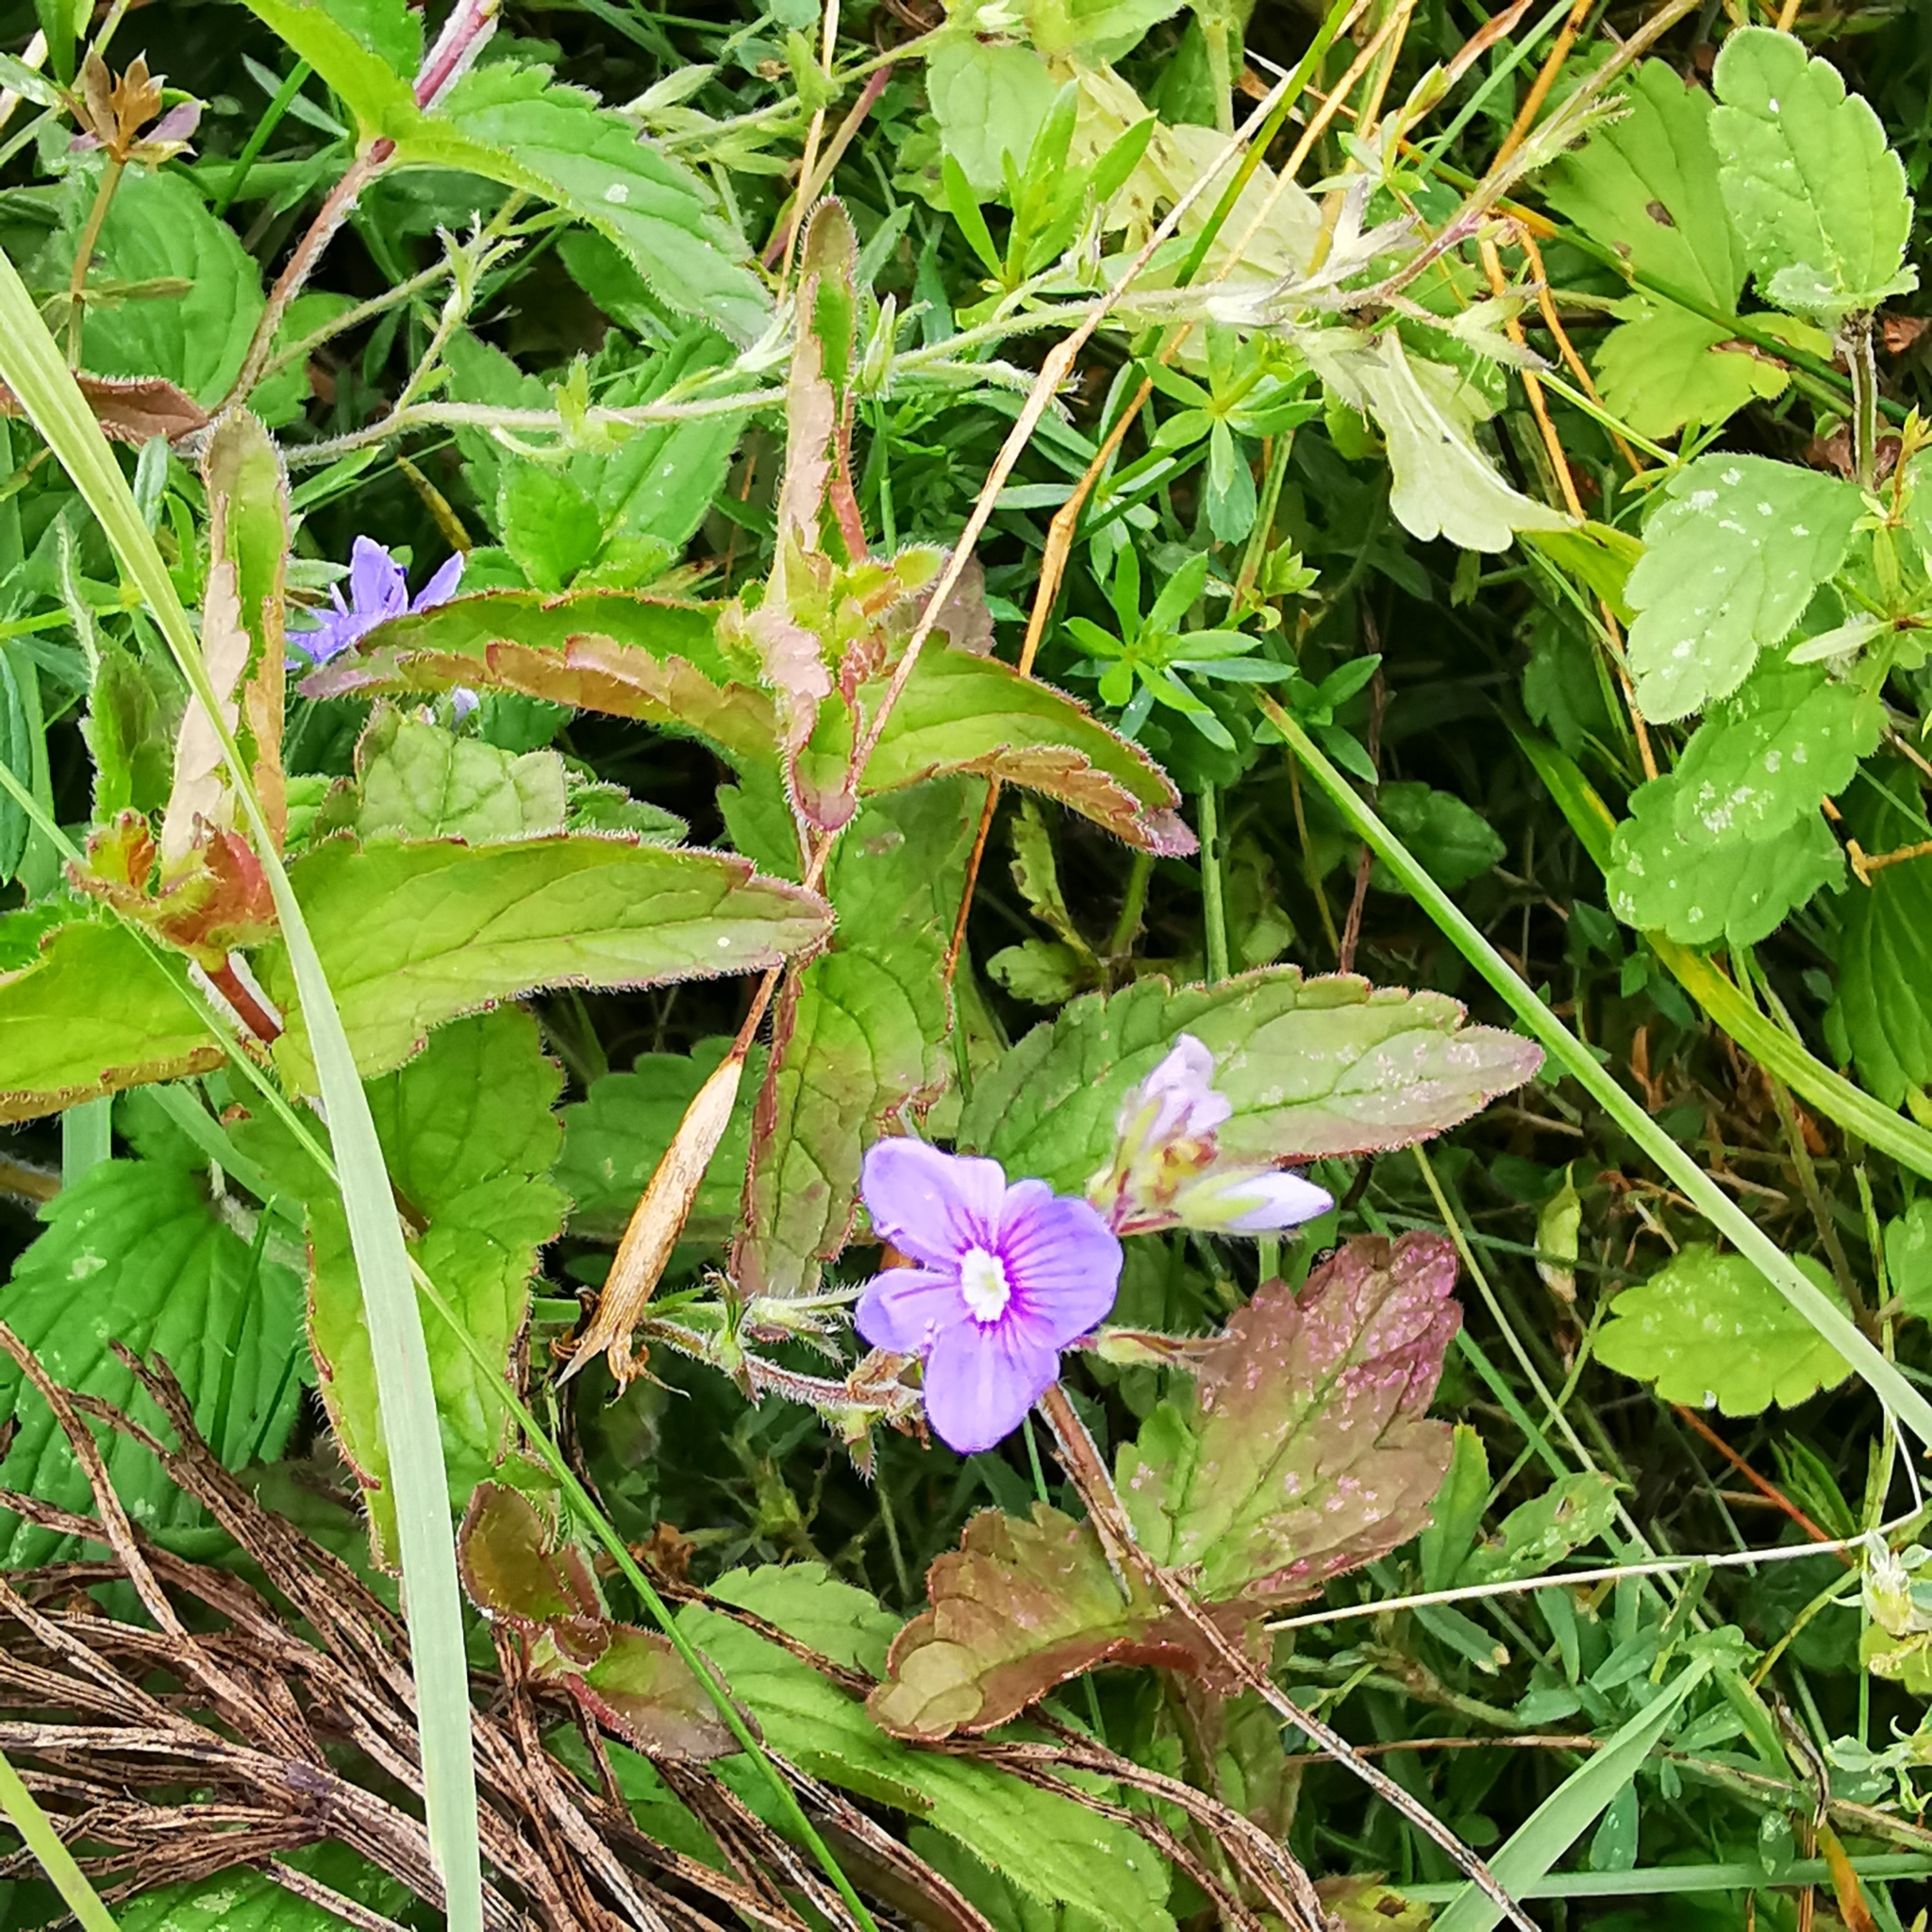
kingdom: Plantae
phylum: Tracheophyta
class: Magnoliopsida
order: Lamiales
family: Plantaginaceae
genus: Veronica
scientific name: Veronica chamaedrys
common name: Germander speedwell
